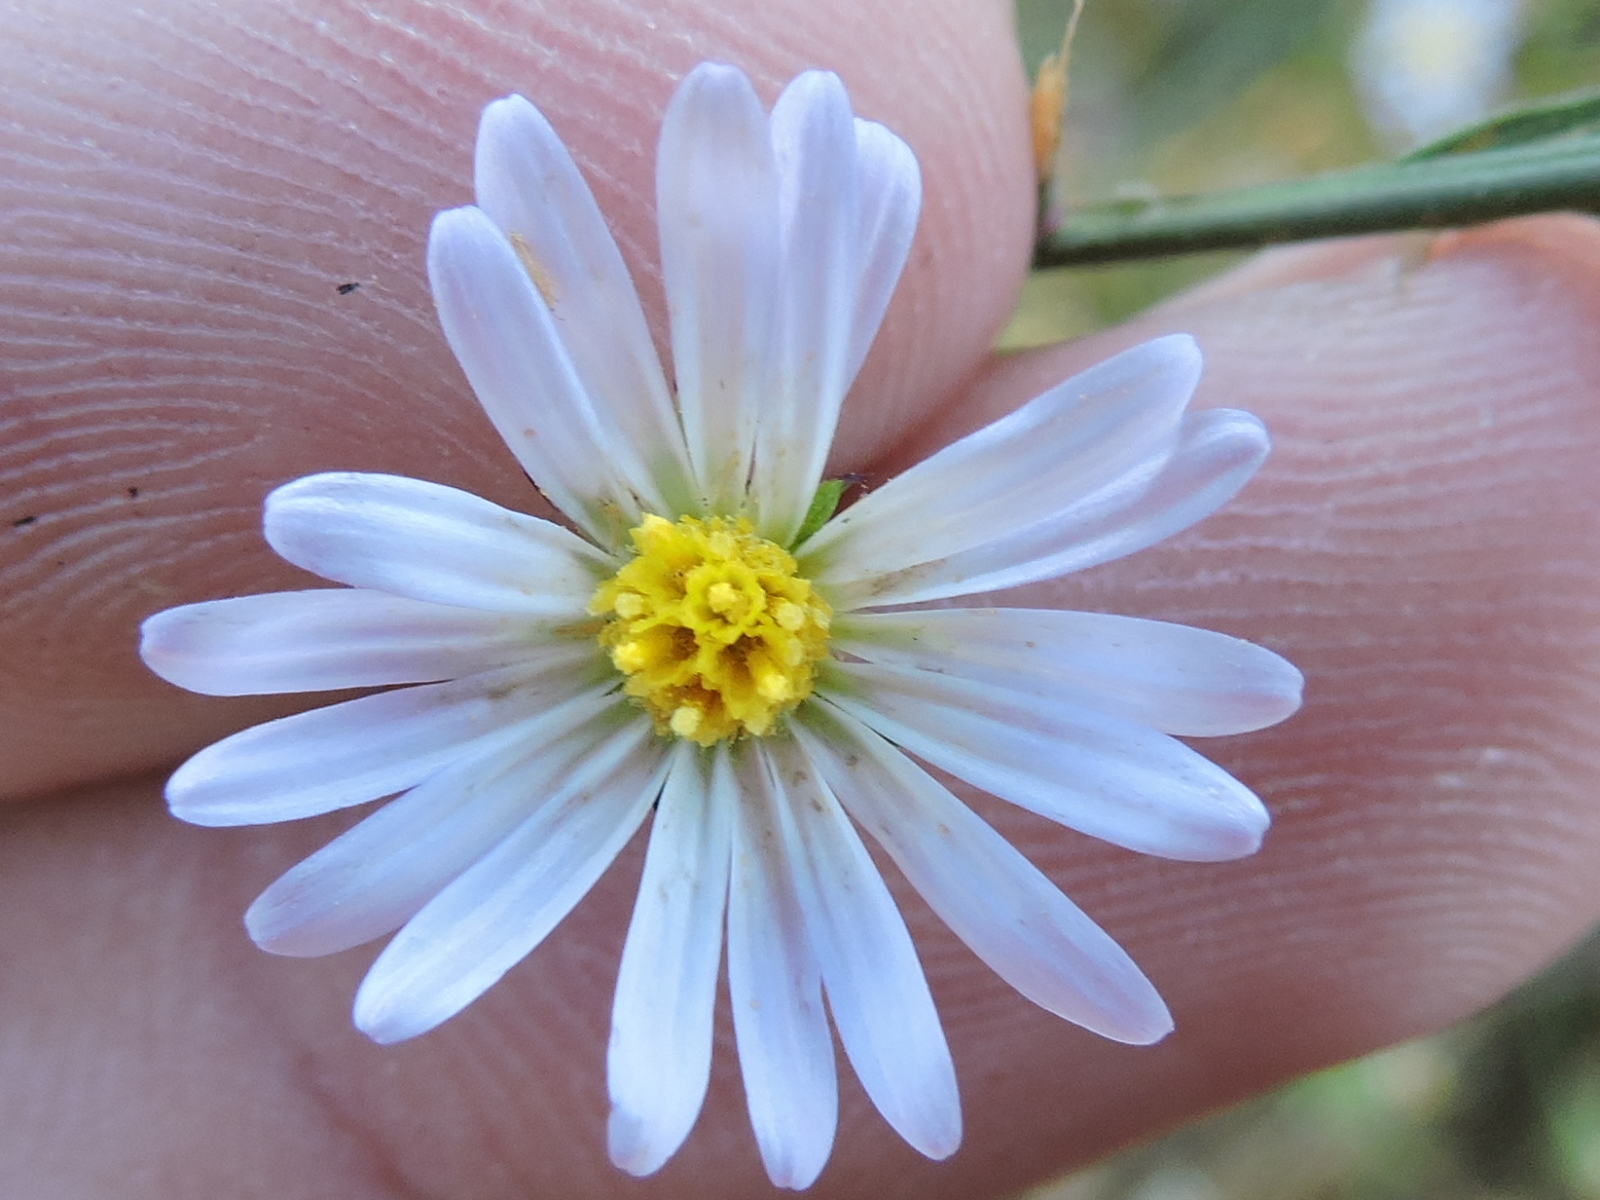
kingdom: Plantae
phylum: Tracheophyta
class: Magnoliopsida
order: Asterales
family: Asteraceae
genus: Symphyotrichum
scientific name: Symphyotrichum divaricatum
